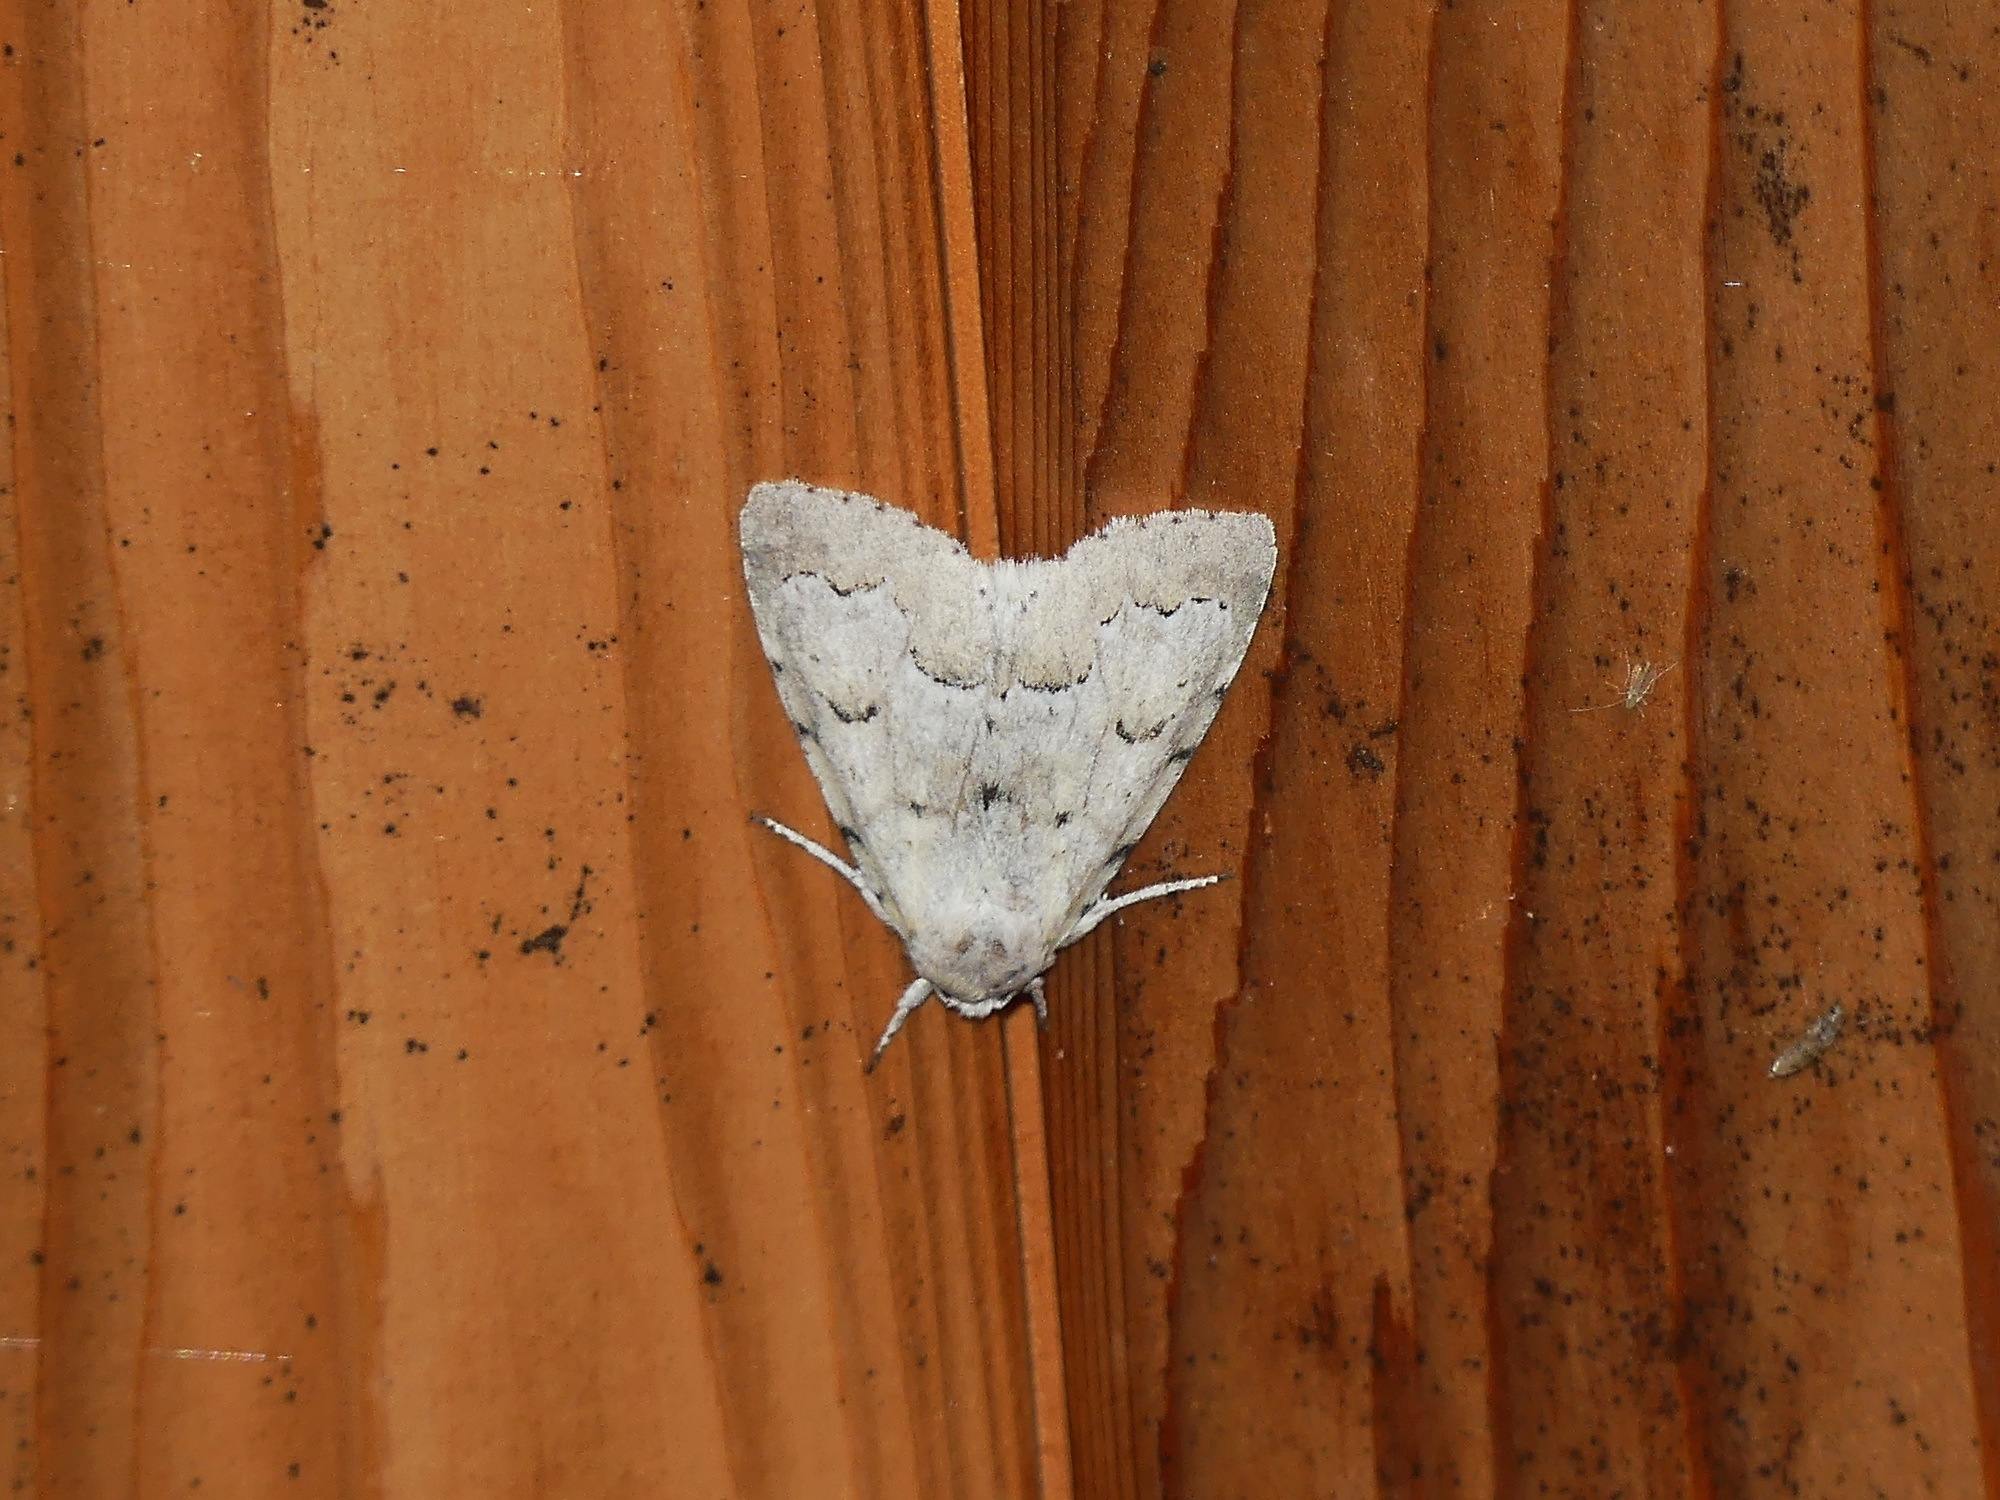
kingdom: Animalia
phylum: Arthropoda
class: Insecta
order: Lepidoptera
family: Noctuidae
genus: Acronicta
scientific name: Acronicta innotata
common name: Unmarked dagger
